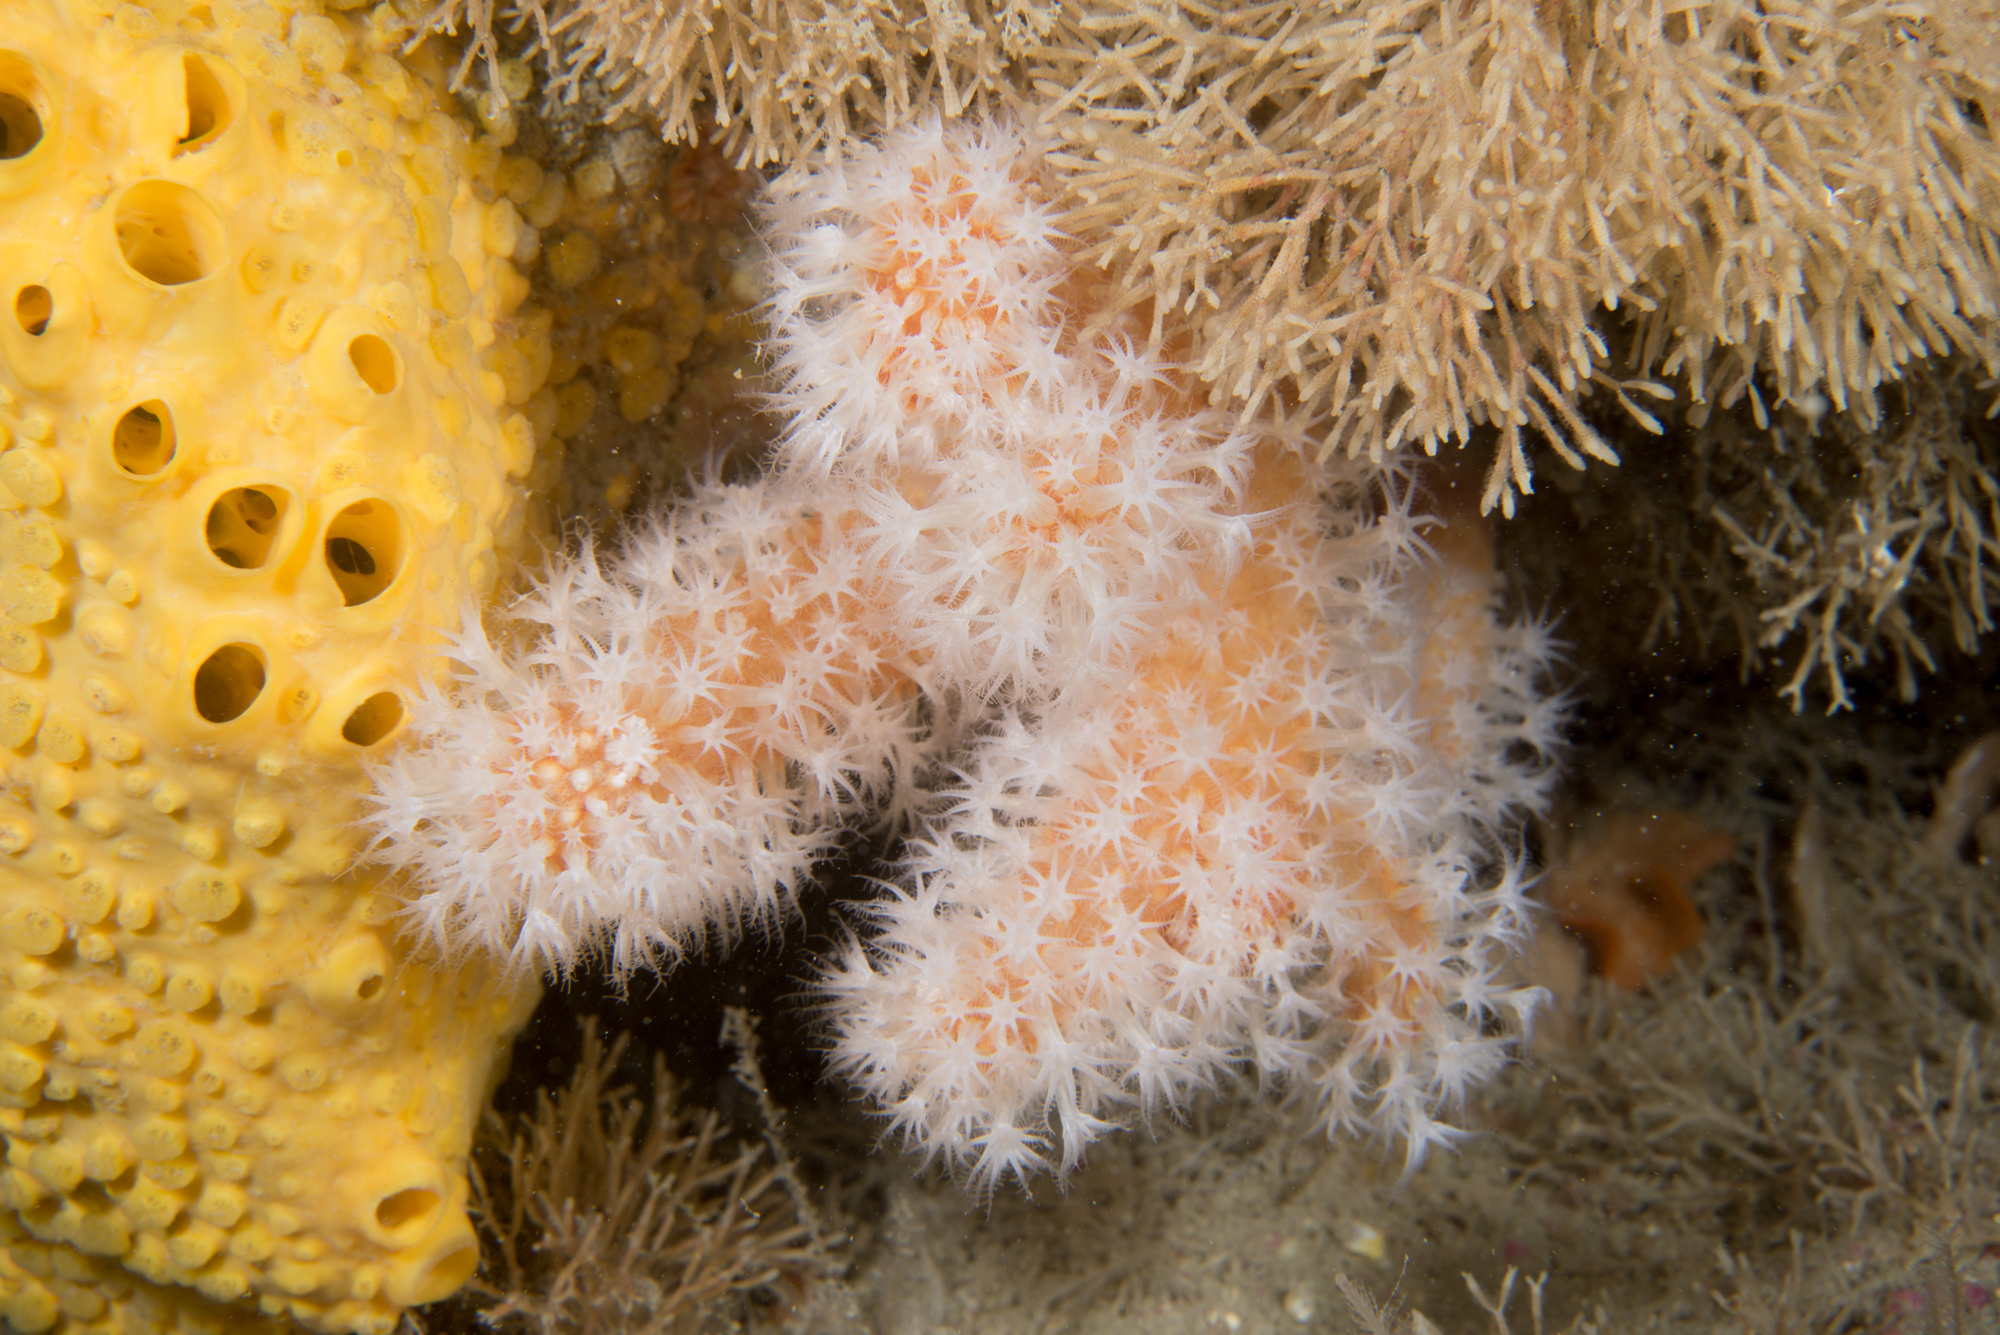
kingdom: Animalia
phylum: Cnidaria
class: Anthozoa
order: Malacalcyonacea
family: Alcyoniidae
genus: Alcyonium
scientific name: Alcyonium glomeratum
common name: Red fingers
